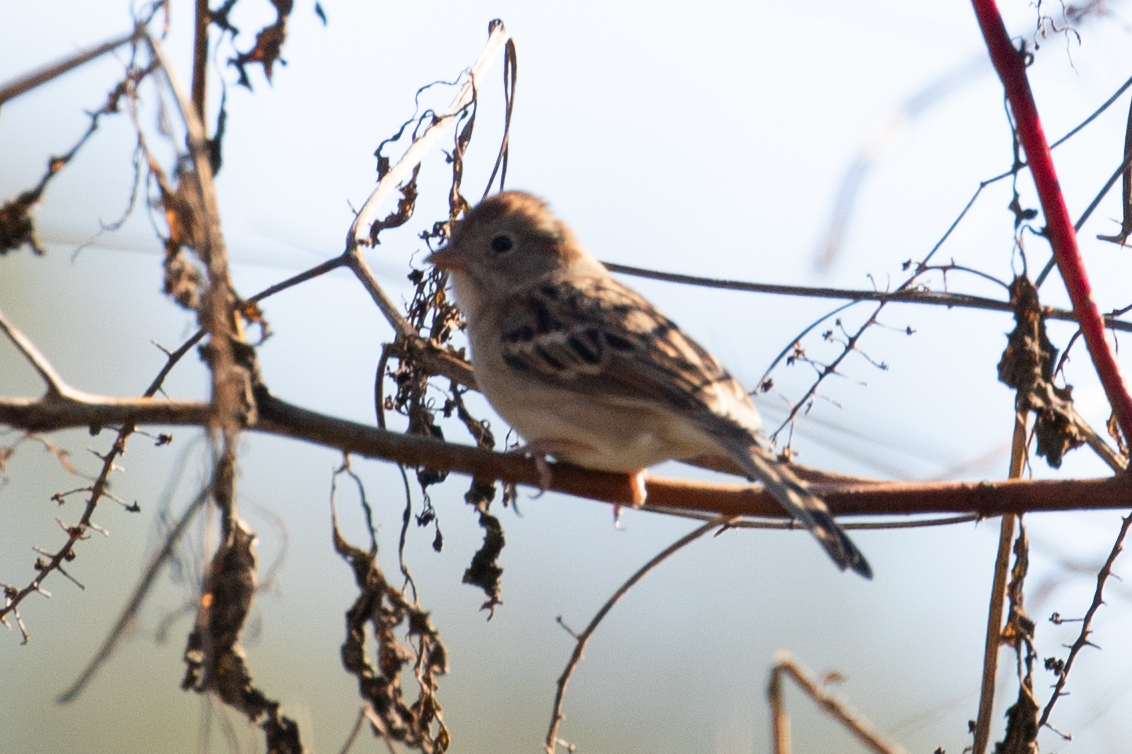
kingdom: Animalia
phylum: Chordata
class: Aves
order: Passeriformes
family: Passerellidae
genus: Spizella
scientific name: Spizella pusilla
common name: Field sparrow
